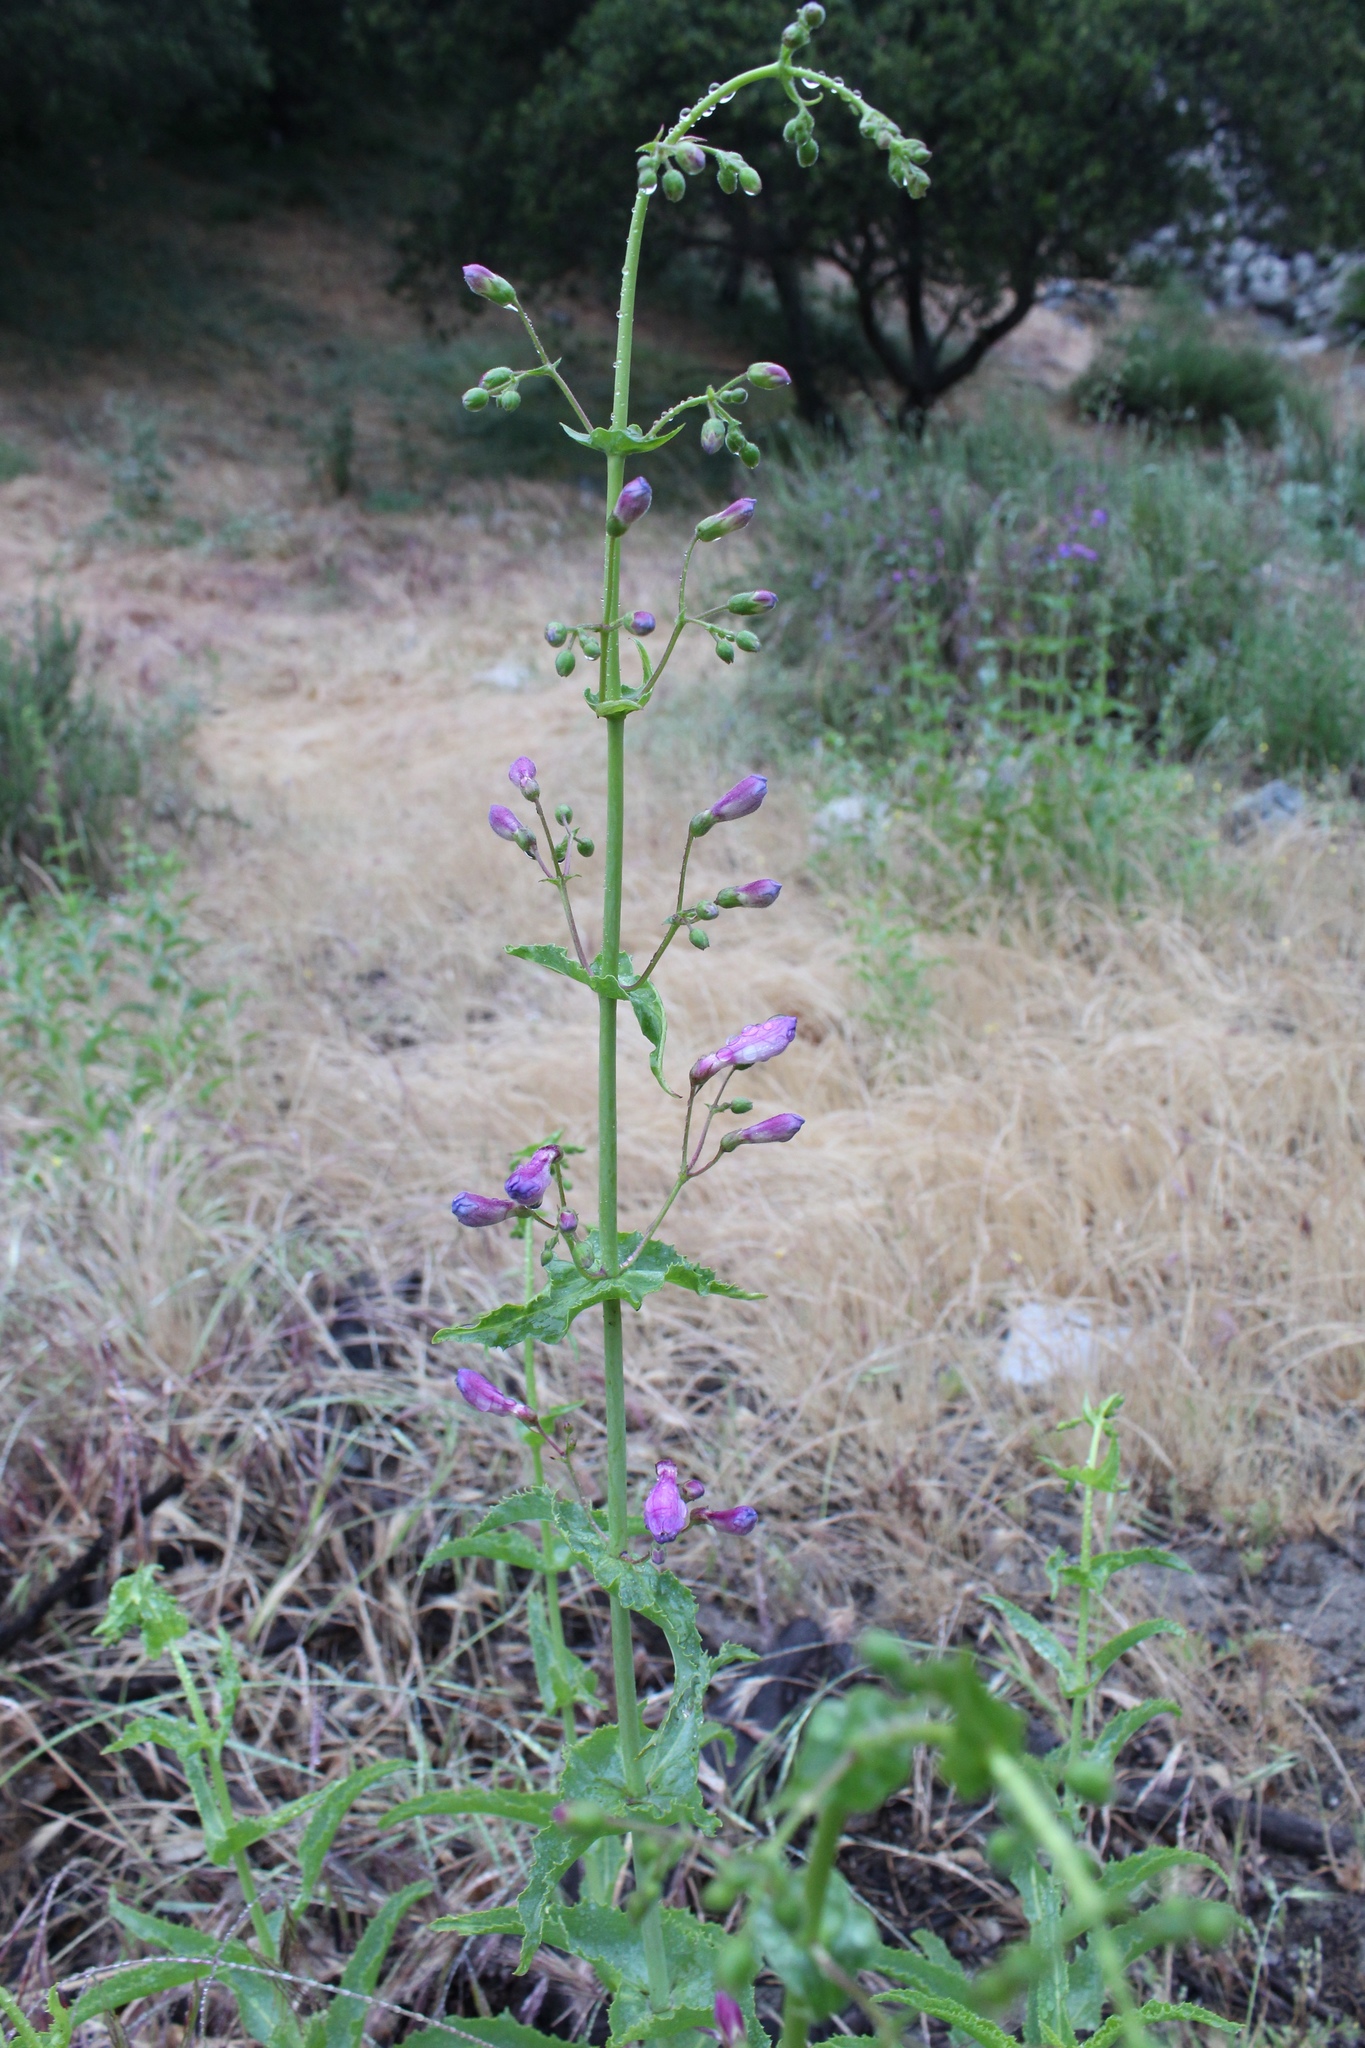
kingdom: Plantae
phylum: Tracheophyta
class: Magnoliopsida
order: Lamiales
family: Plantaginaceae
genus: Penstemon
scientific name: Penstemon spectabilis
